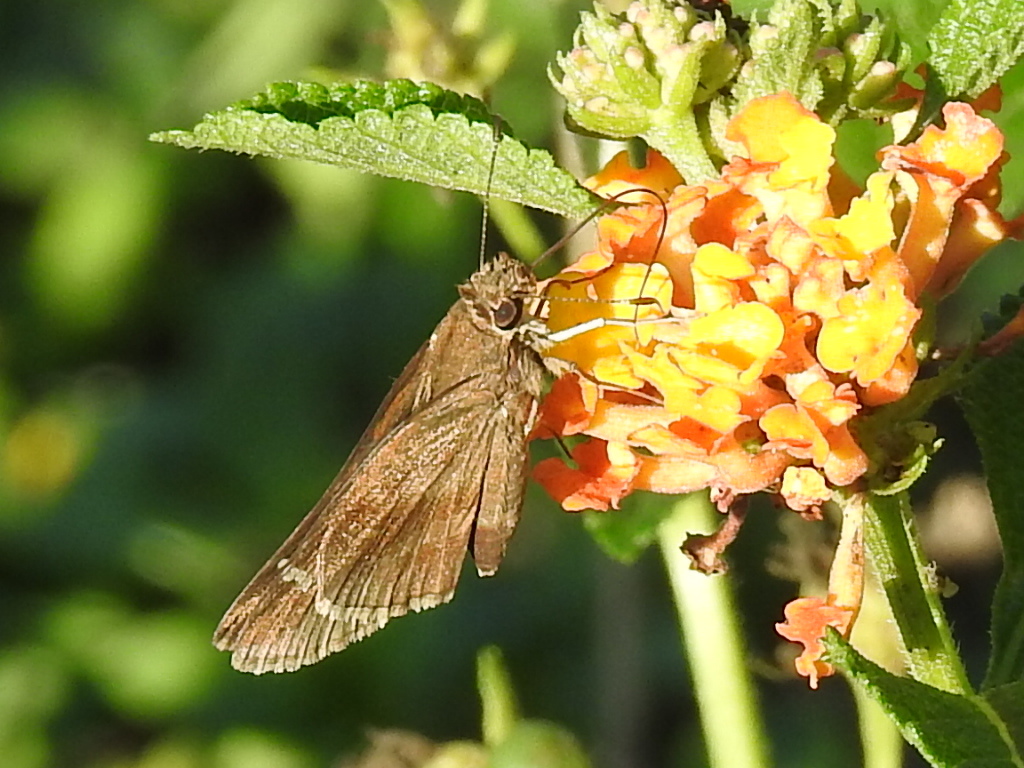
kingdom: Animalia
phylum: Arthropoda
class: Insecta
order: Lepidoptera
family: Hesperiidae
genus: Lerema
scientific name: Lerema accius
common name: Clouded skipper
